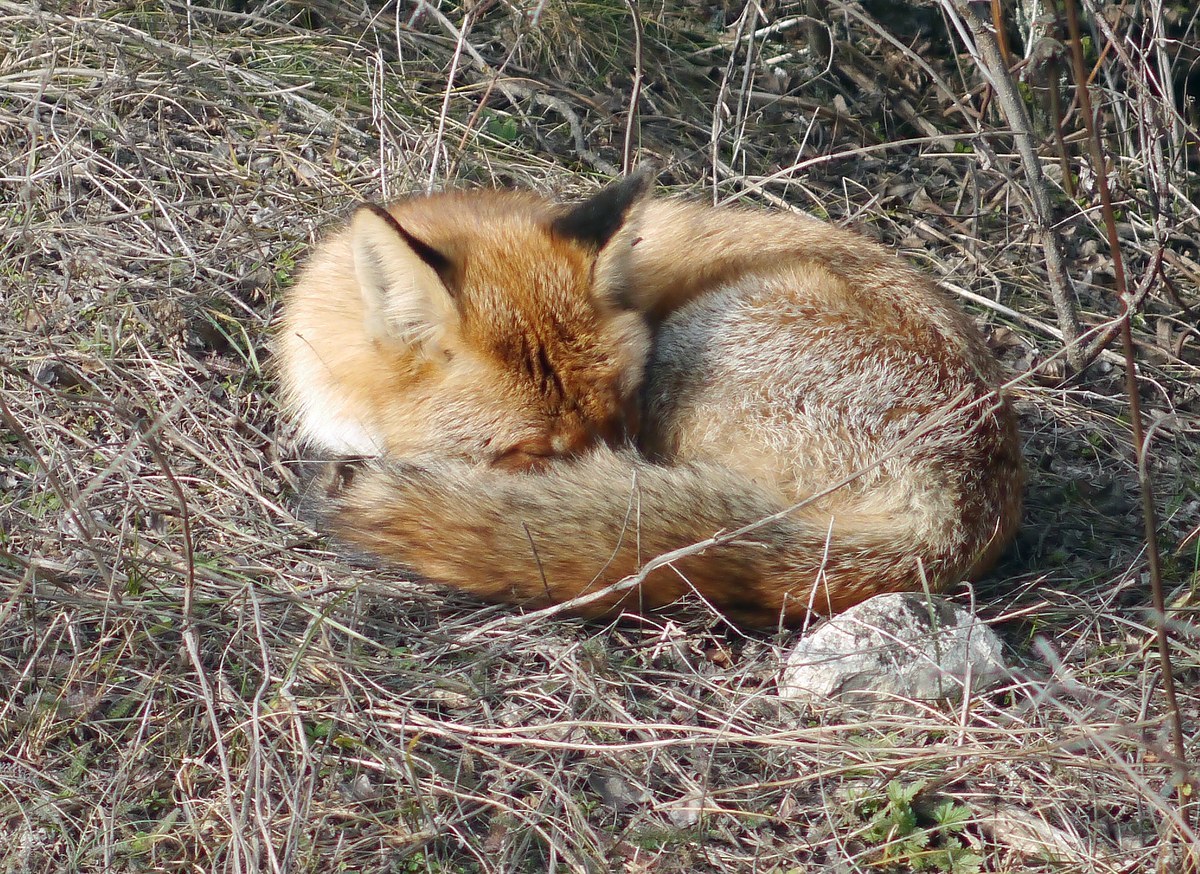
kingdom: Animalia
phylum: Chordata
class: Mammalia
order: Carnivora
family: Canidae
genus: Vulpes
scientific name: Vulpes vulpes
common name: Red fox
